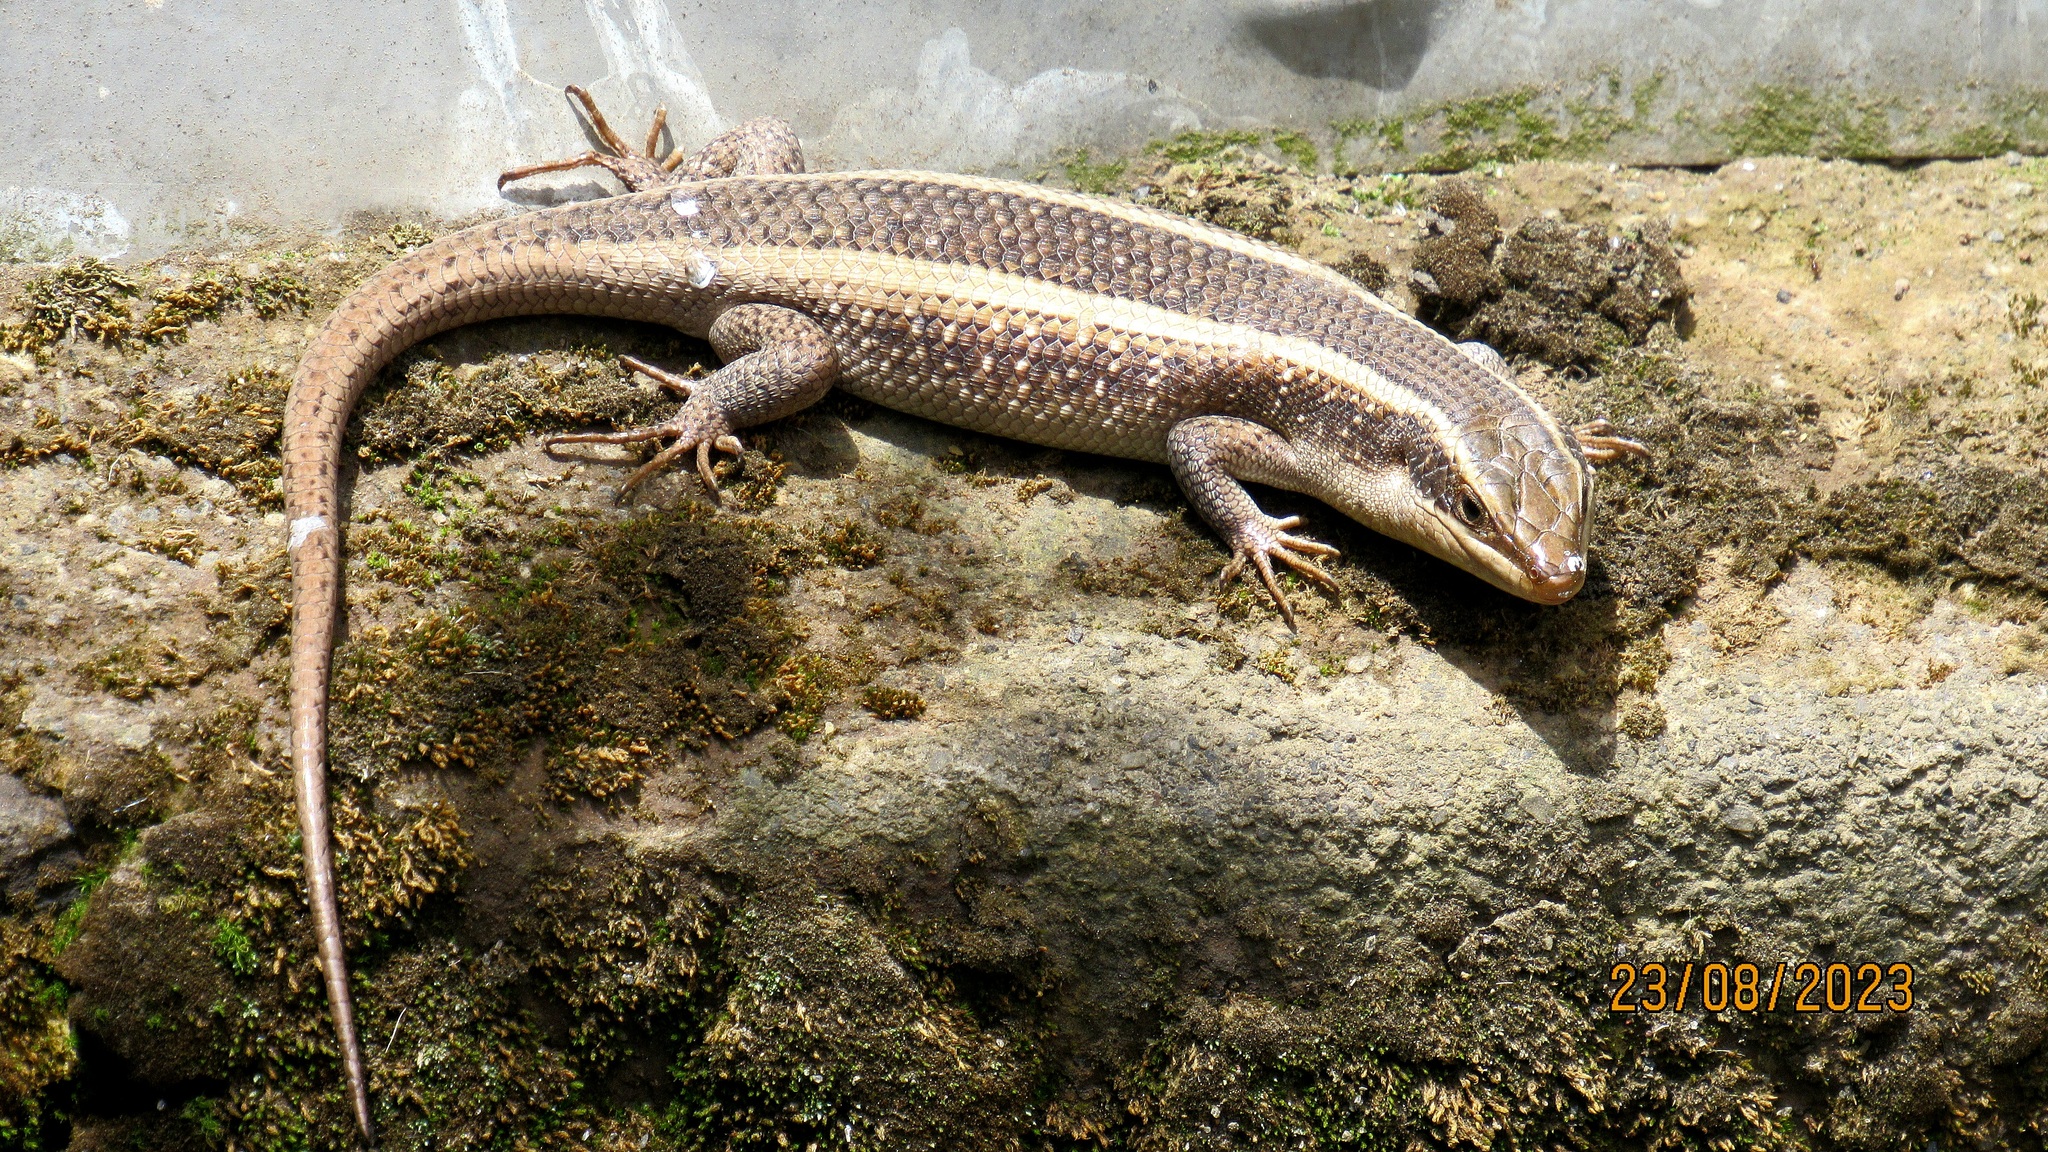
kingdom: Animalia
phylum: Chordata
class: Squamata
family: Scincidae
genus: Trachylepis
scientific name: Trachylepis striata
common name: African striped mabuya
